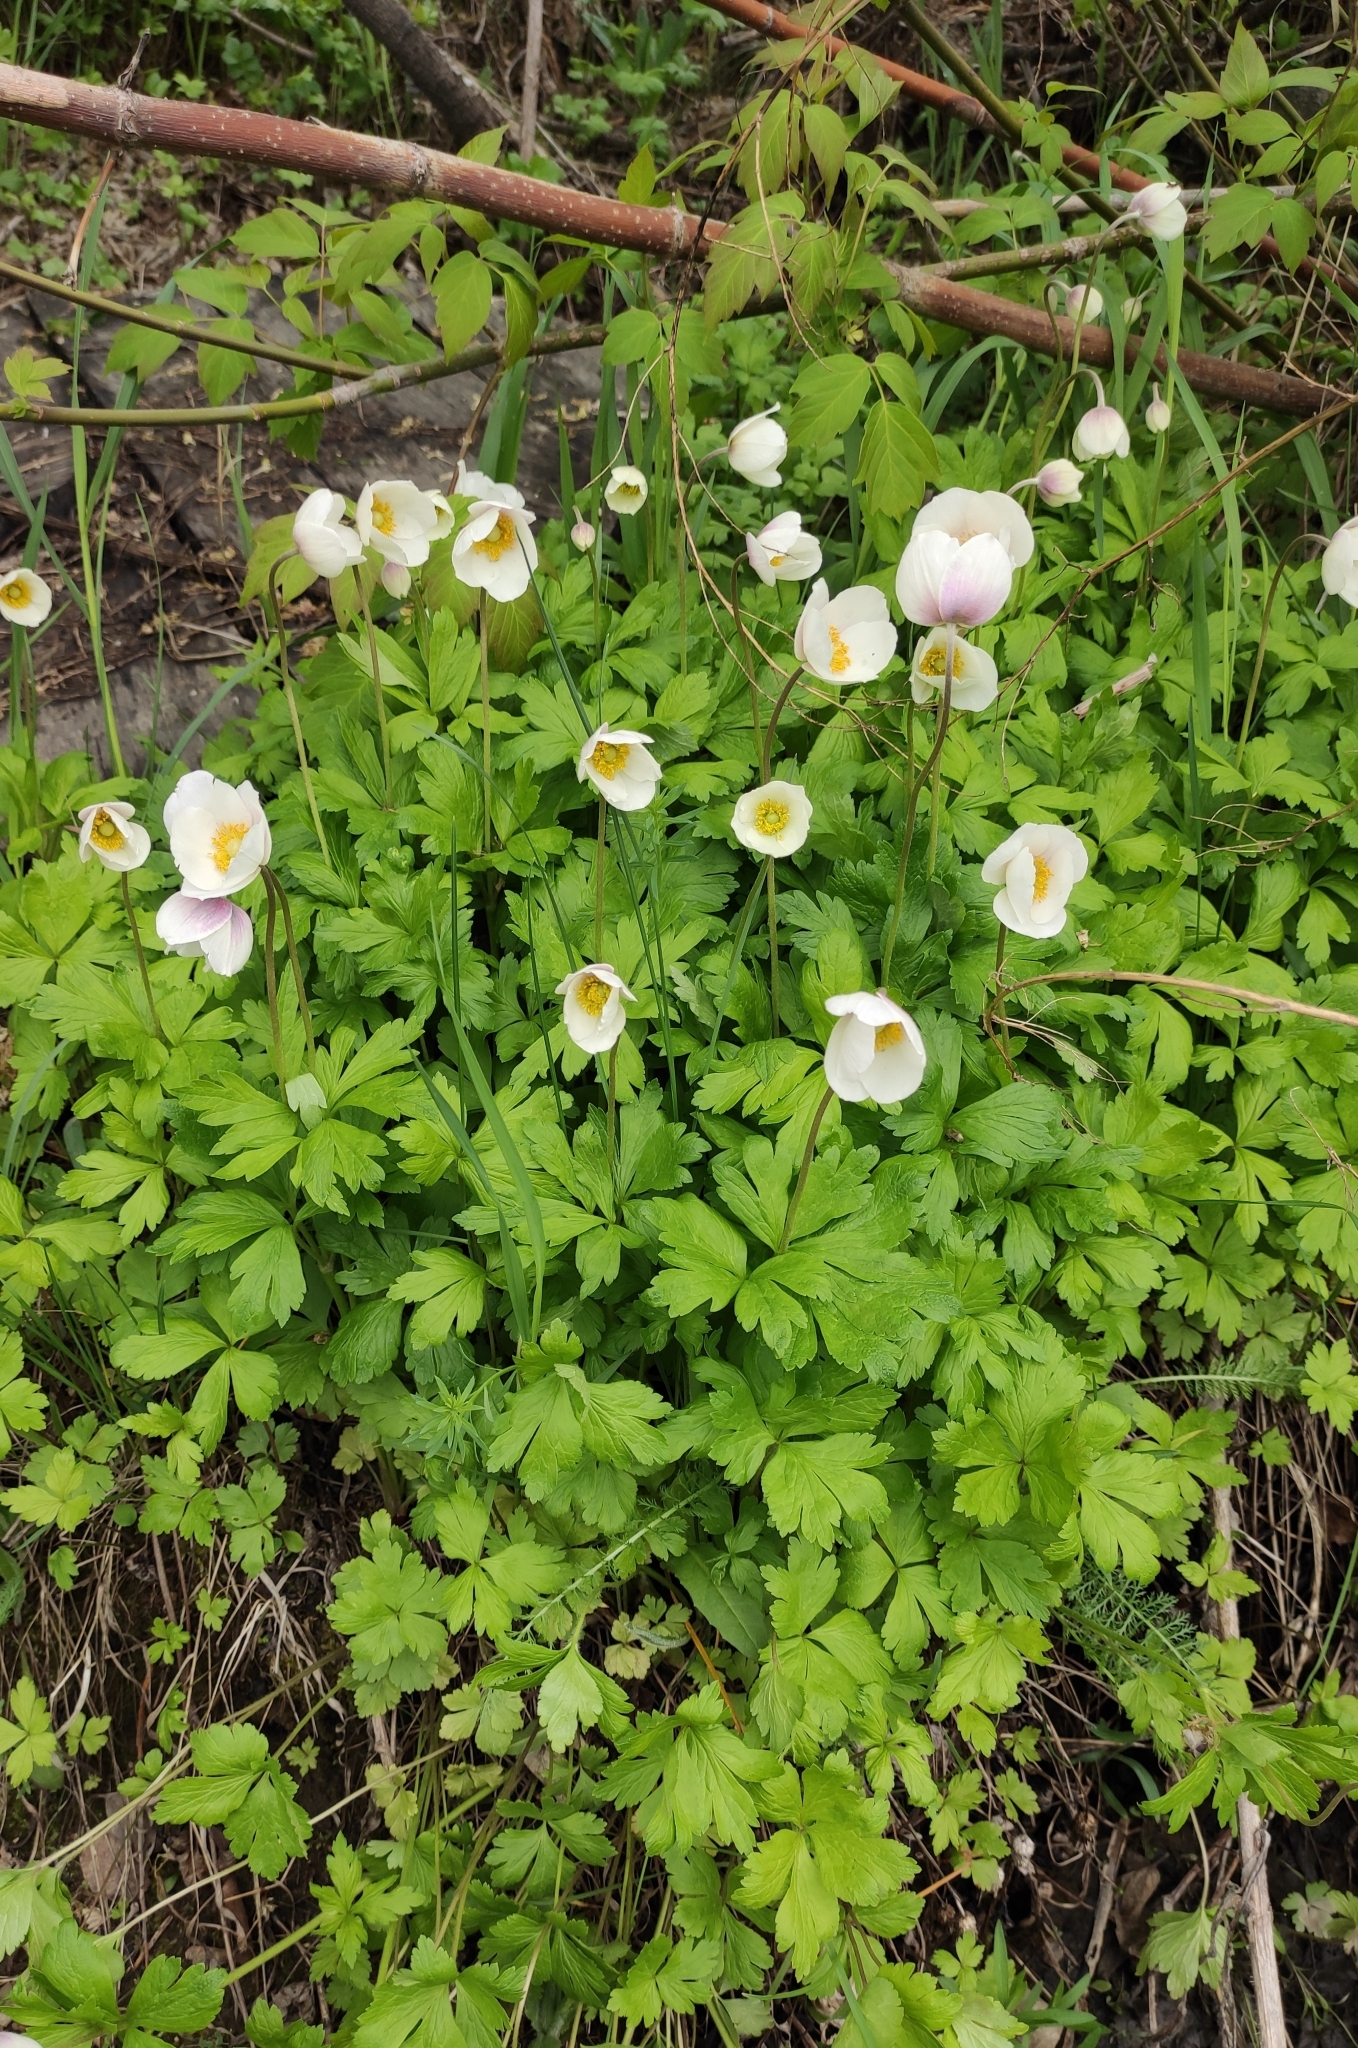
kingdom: Plantae
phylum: Tracheophyta
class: Magnoliopsida
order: Ranunculales
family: Ranunculaceae
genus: Anemone
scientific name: Anemone sylvestris
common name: Snowdrop anemone
